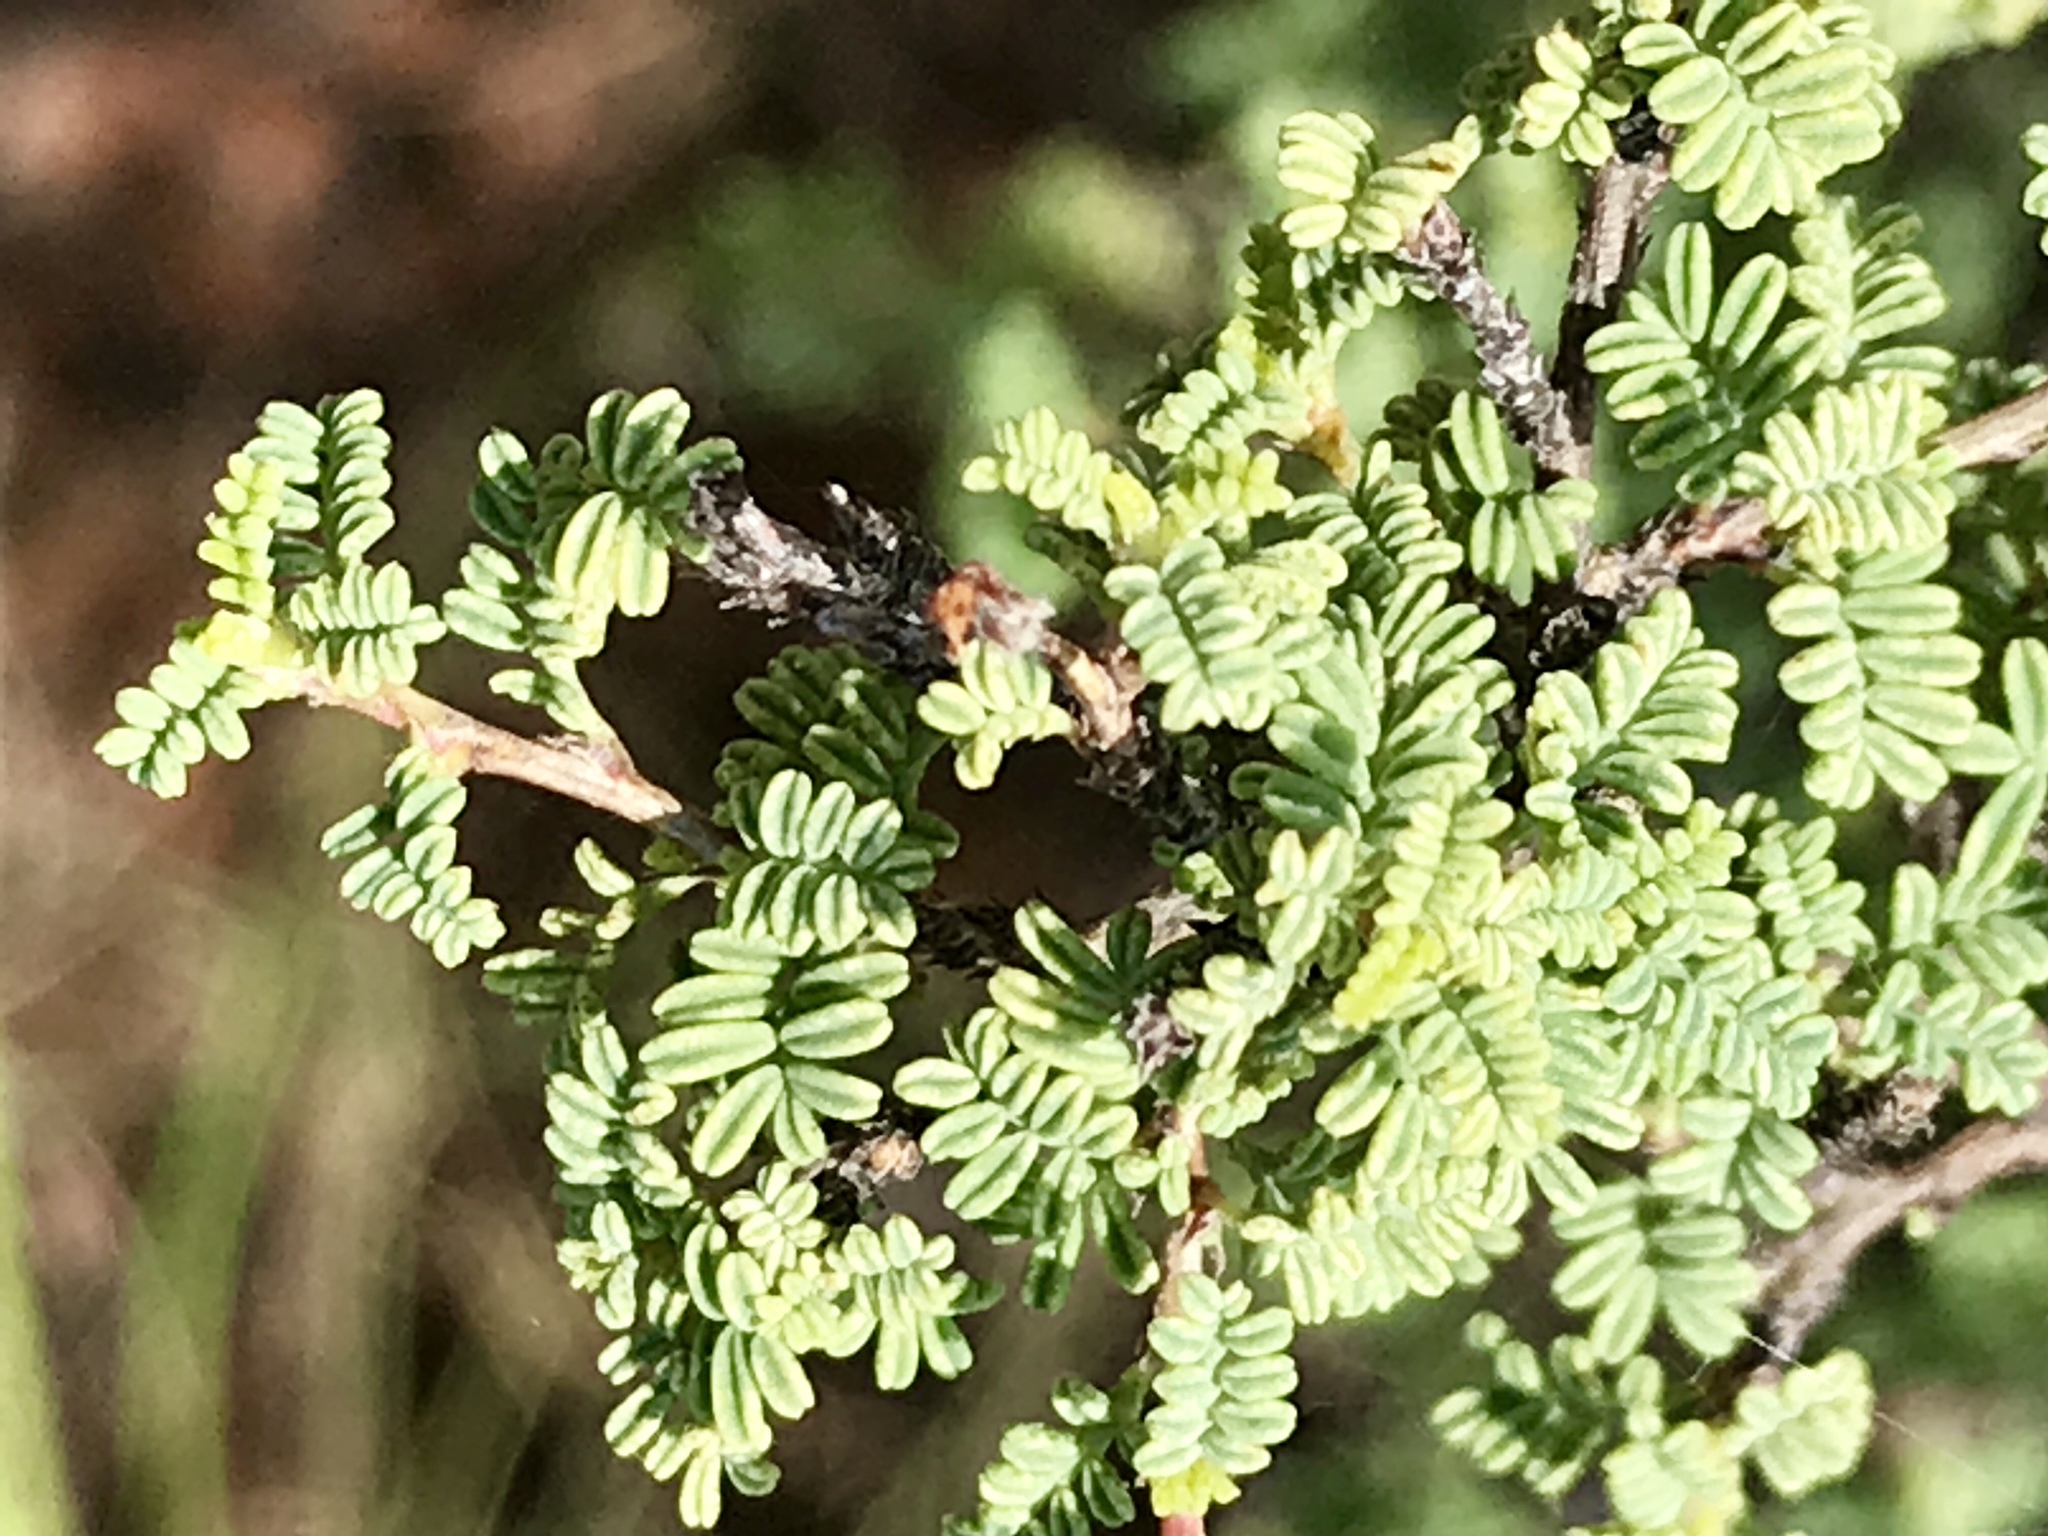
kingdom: Plantae
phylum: Tracheophyta
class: Magnoliopsida
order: Fabales
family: Fabaceae
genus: Dalea
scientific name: Dalea formosa
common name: Feather-plume dalea
